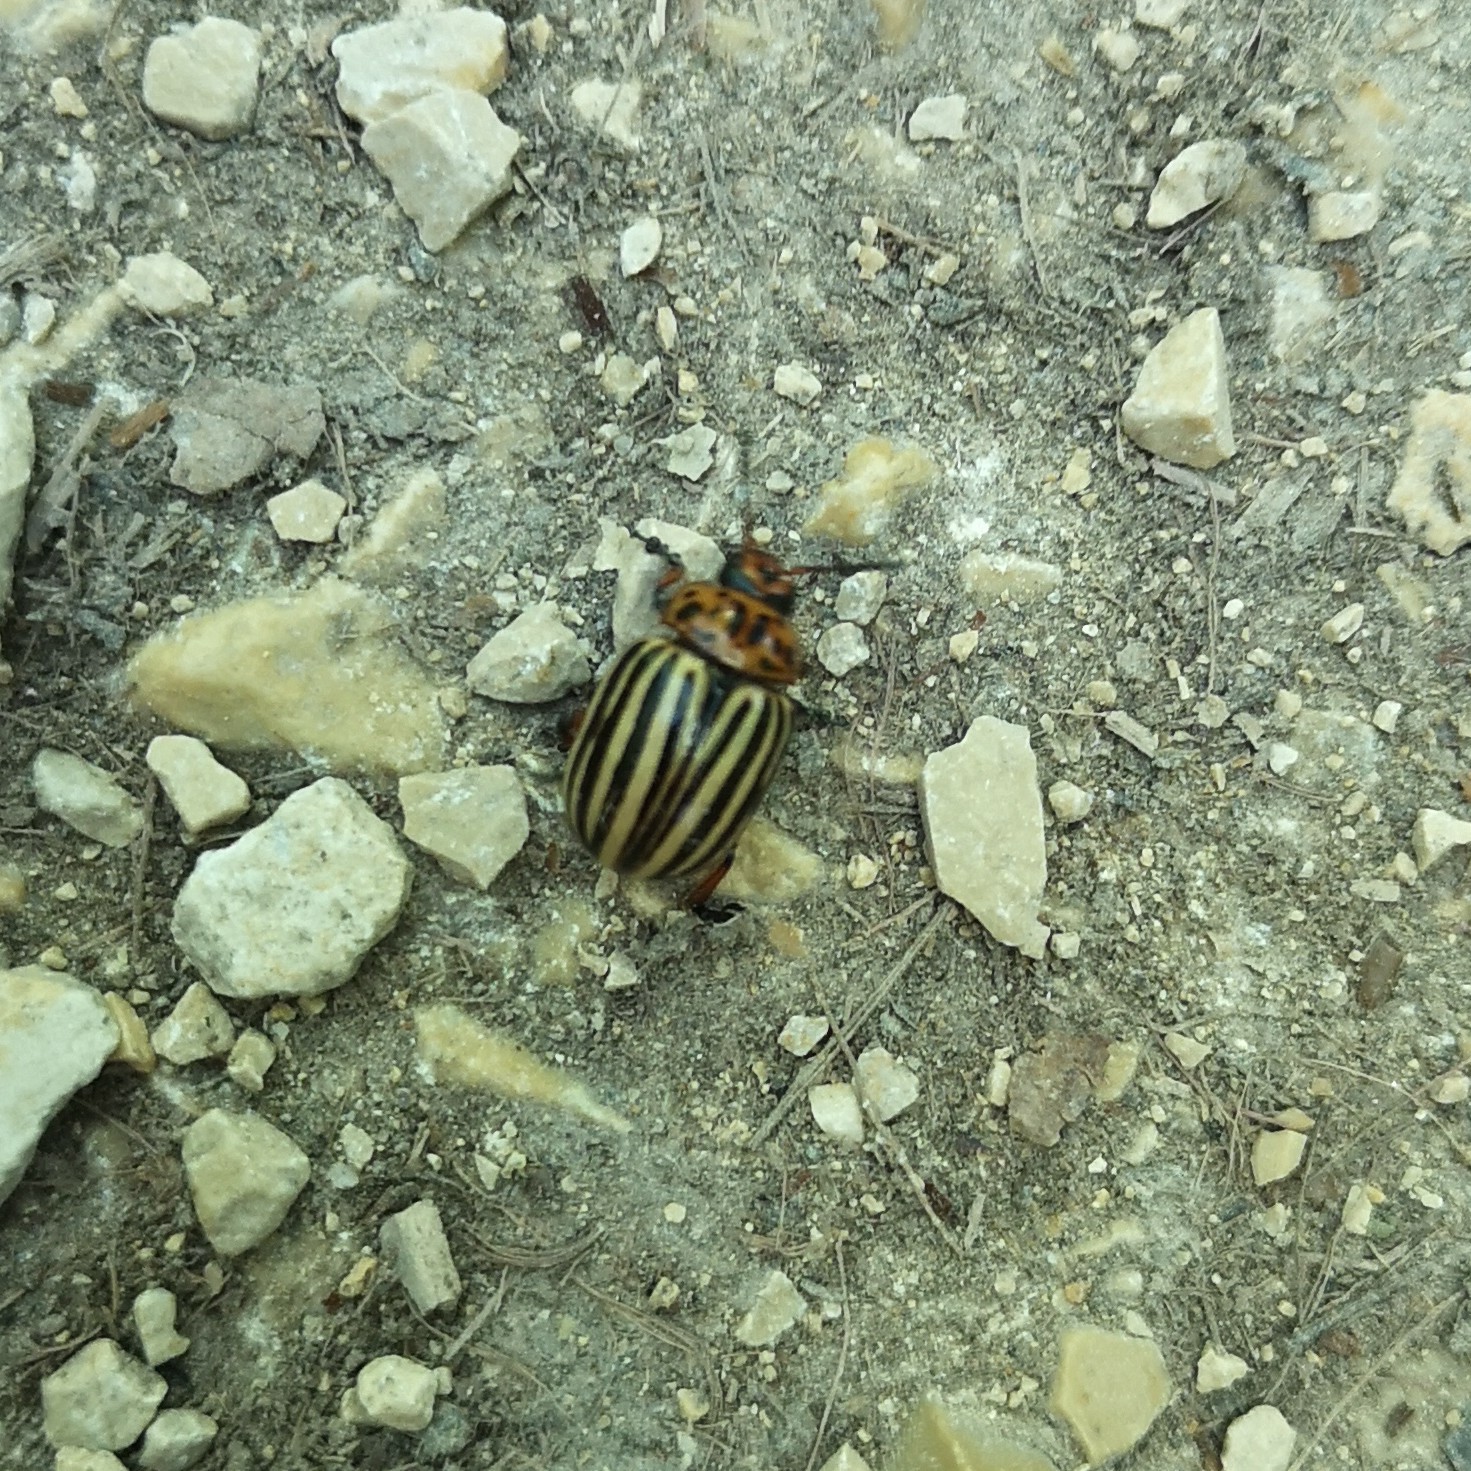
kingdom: Animalia
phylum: Arthropoda
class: Insecta
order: Coleoptera
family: Chrysomelidae
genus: Leptinotarsa
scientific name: Leptinotarsa decemlineata
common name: Colorado potato beetle
